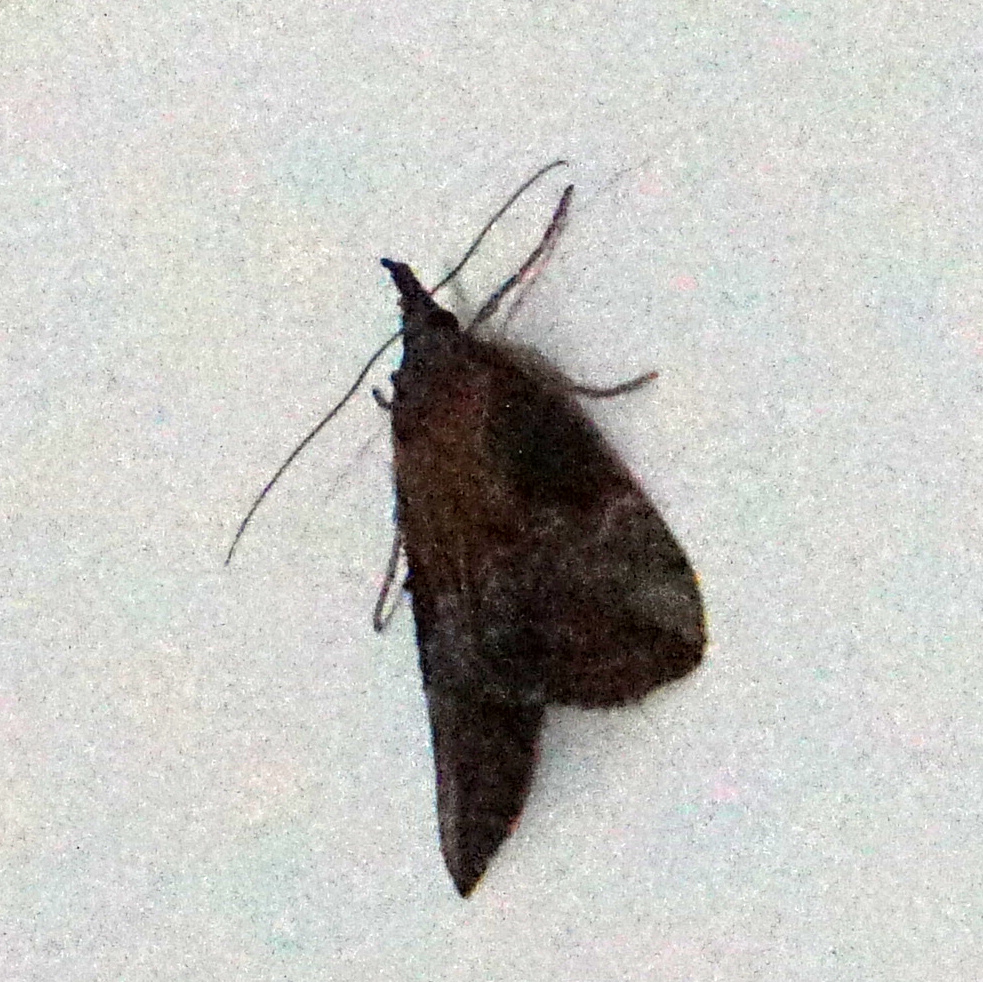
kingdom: Animalia
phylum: Arthropoda
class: Insecta
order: Lepidoptera
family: Erebidae
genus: Hypena
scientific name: Hypena scabra
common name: Green cloverworm
